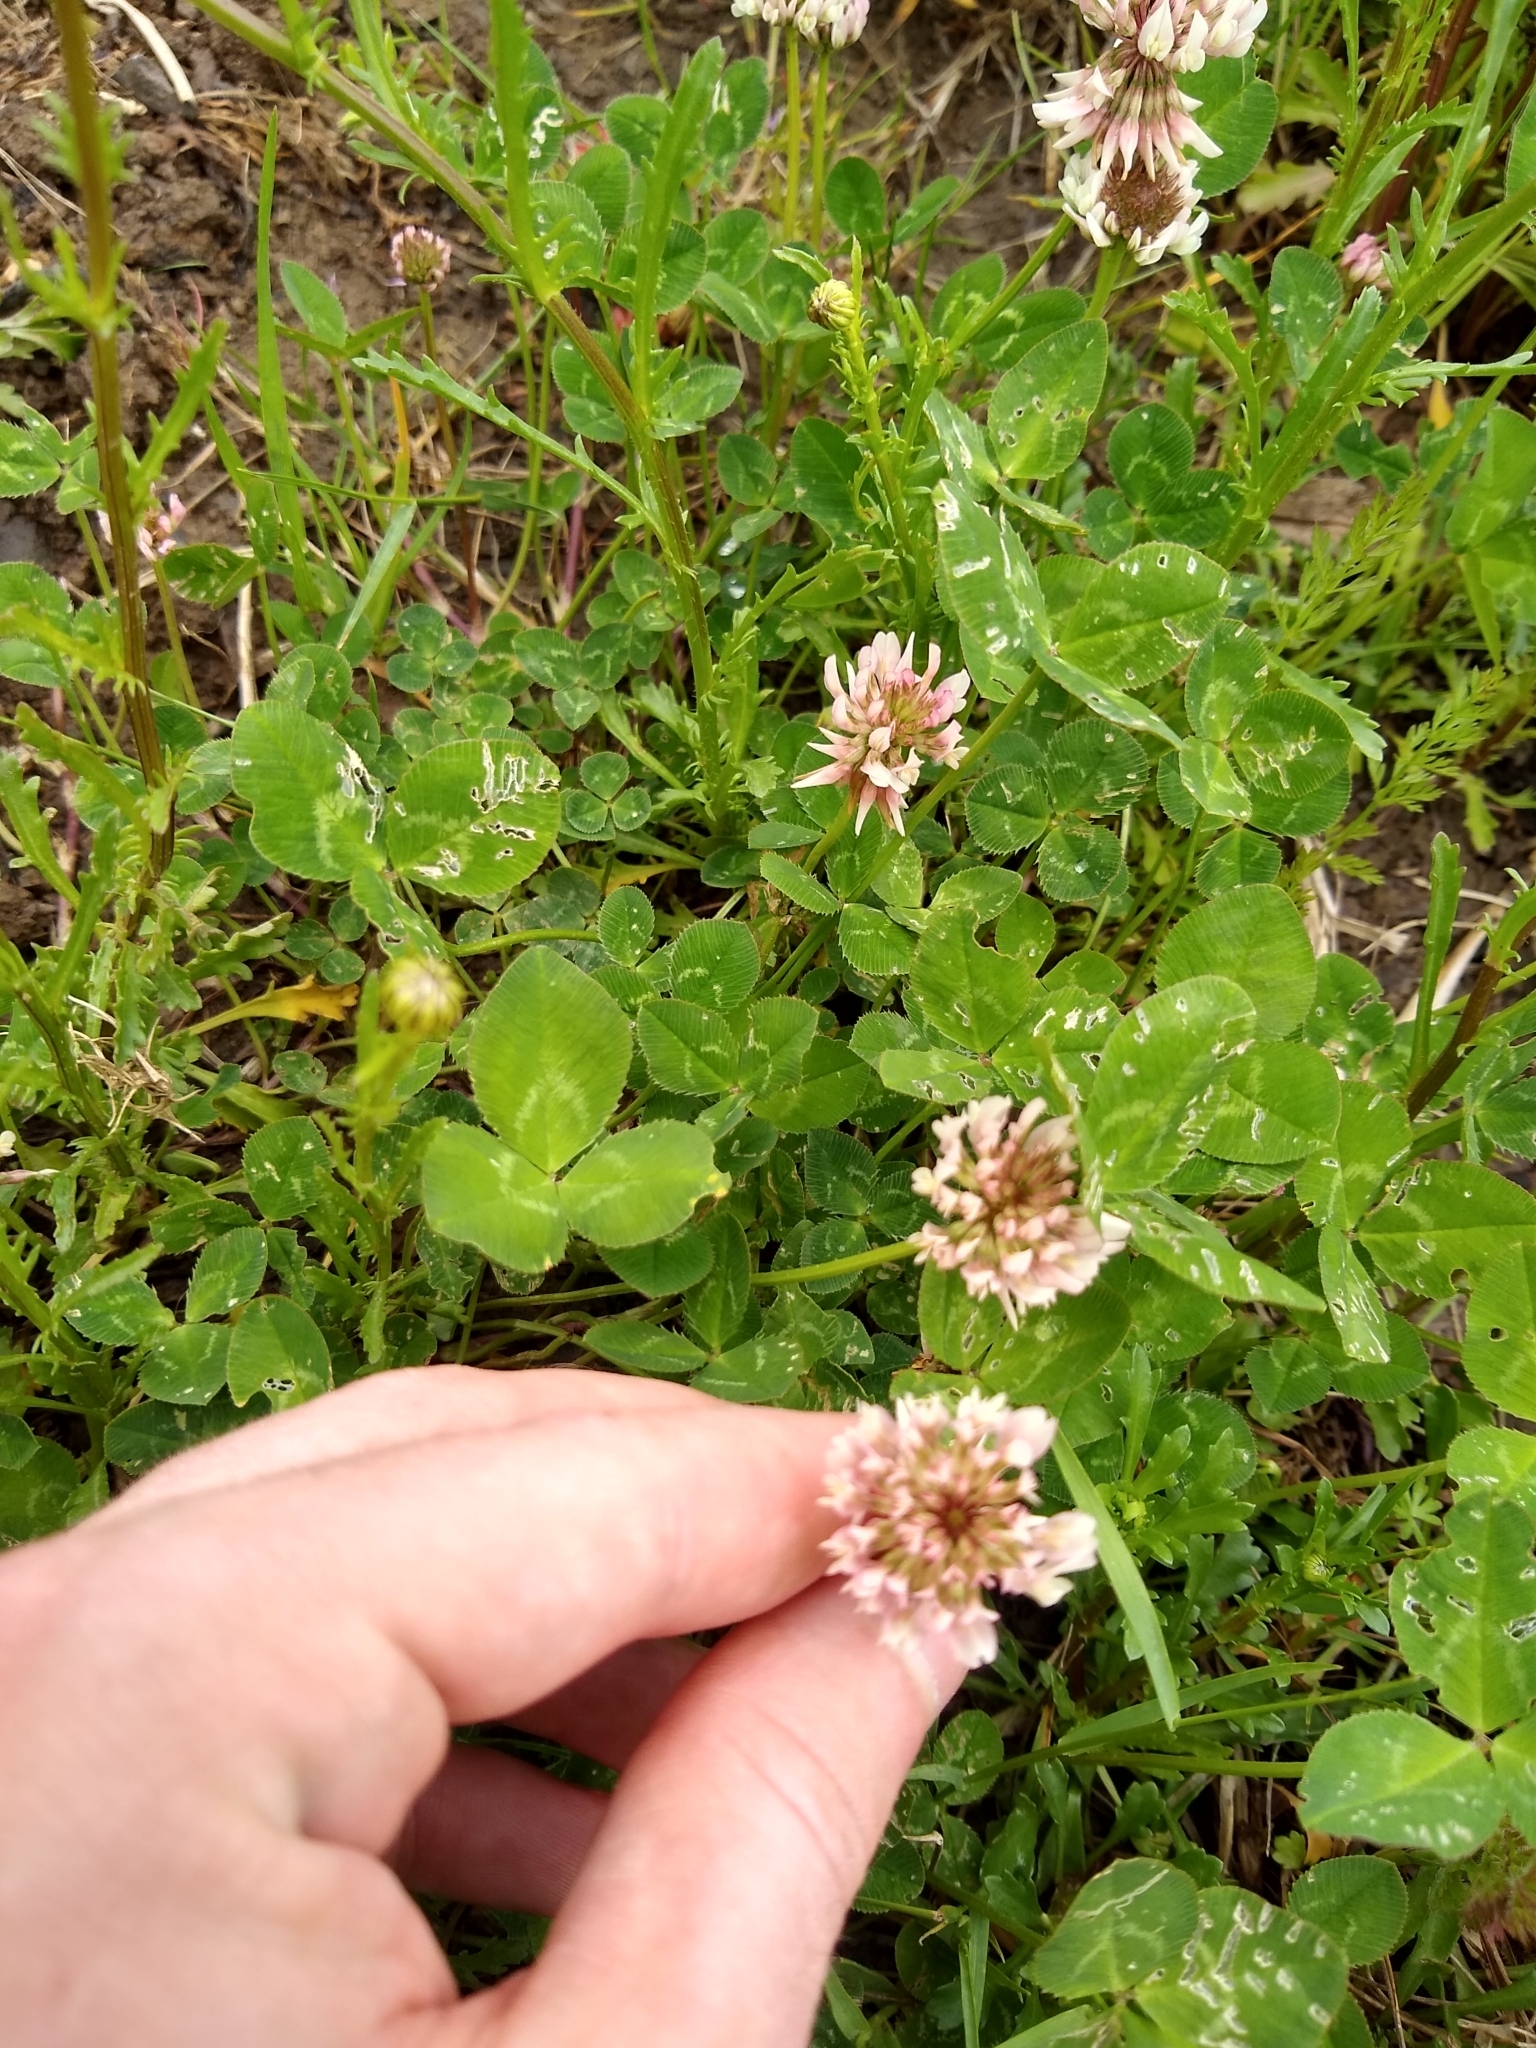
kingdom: Plantae
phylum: Tracheophyta
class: Magnoliopsida
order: Fabales
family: Fabaceae
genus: Trifolium
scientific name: Trifolium repens
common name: White clover
